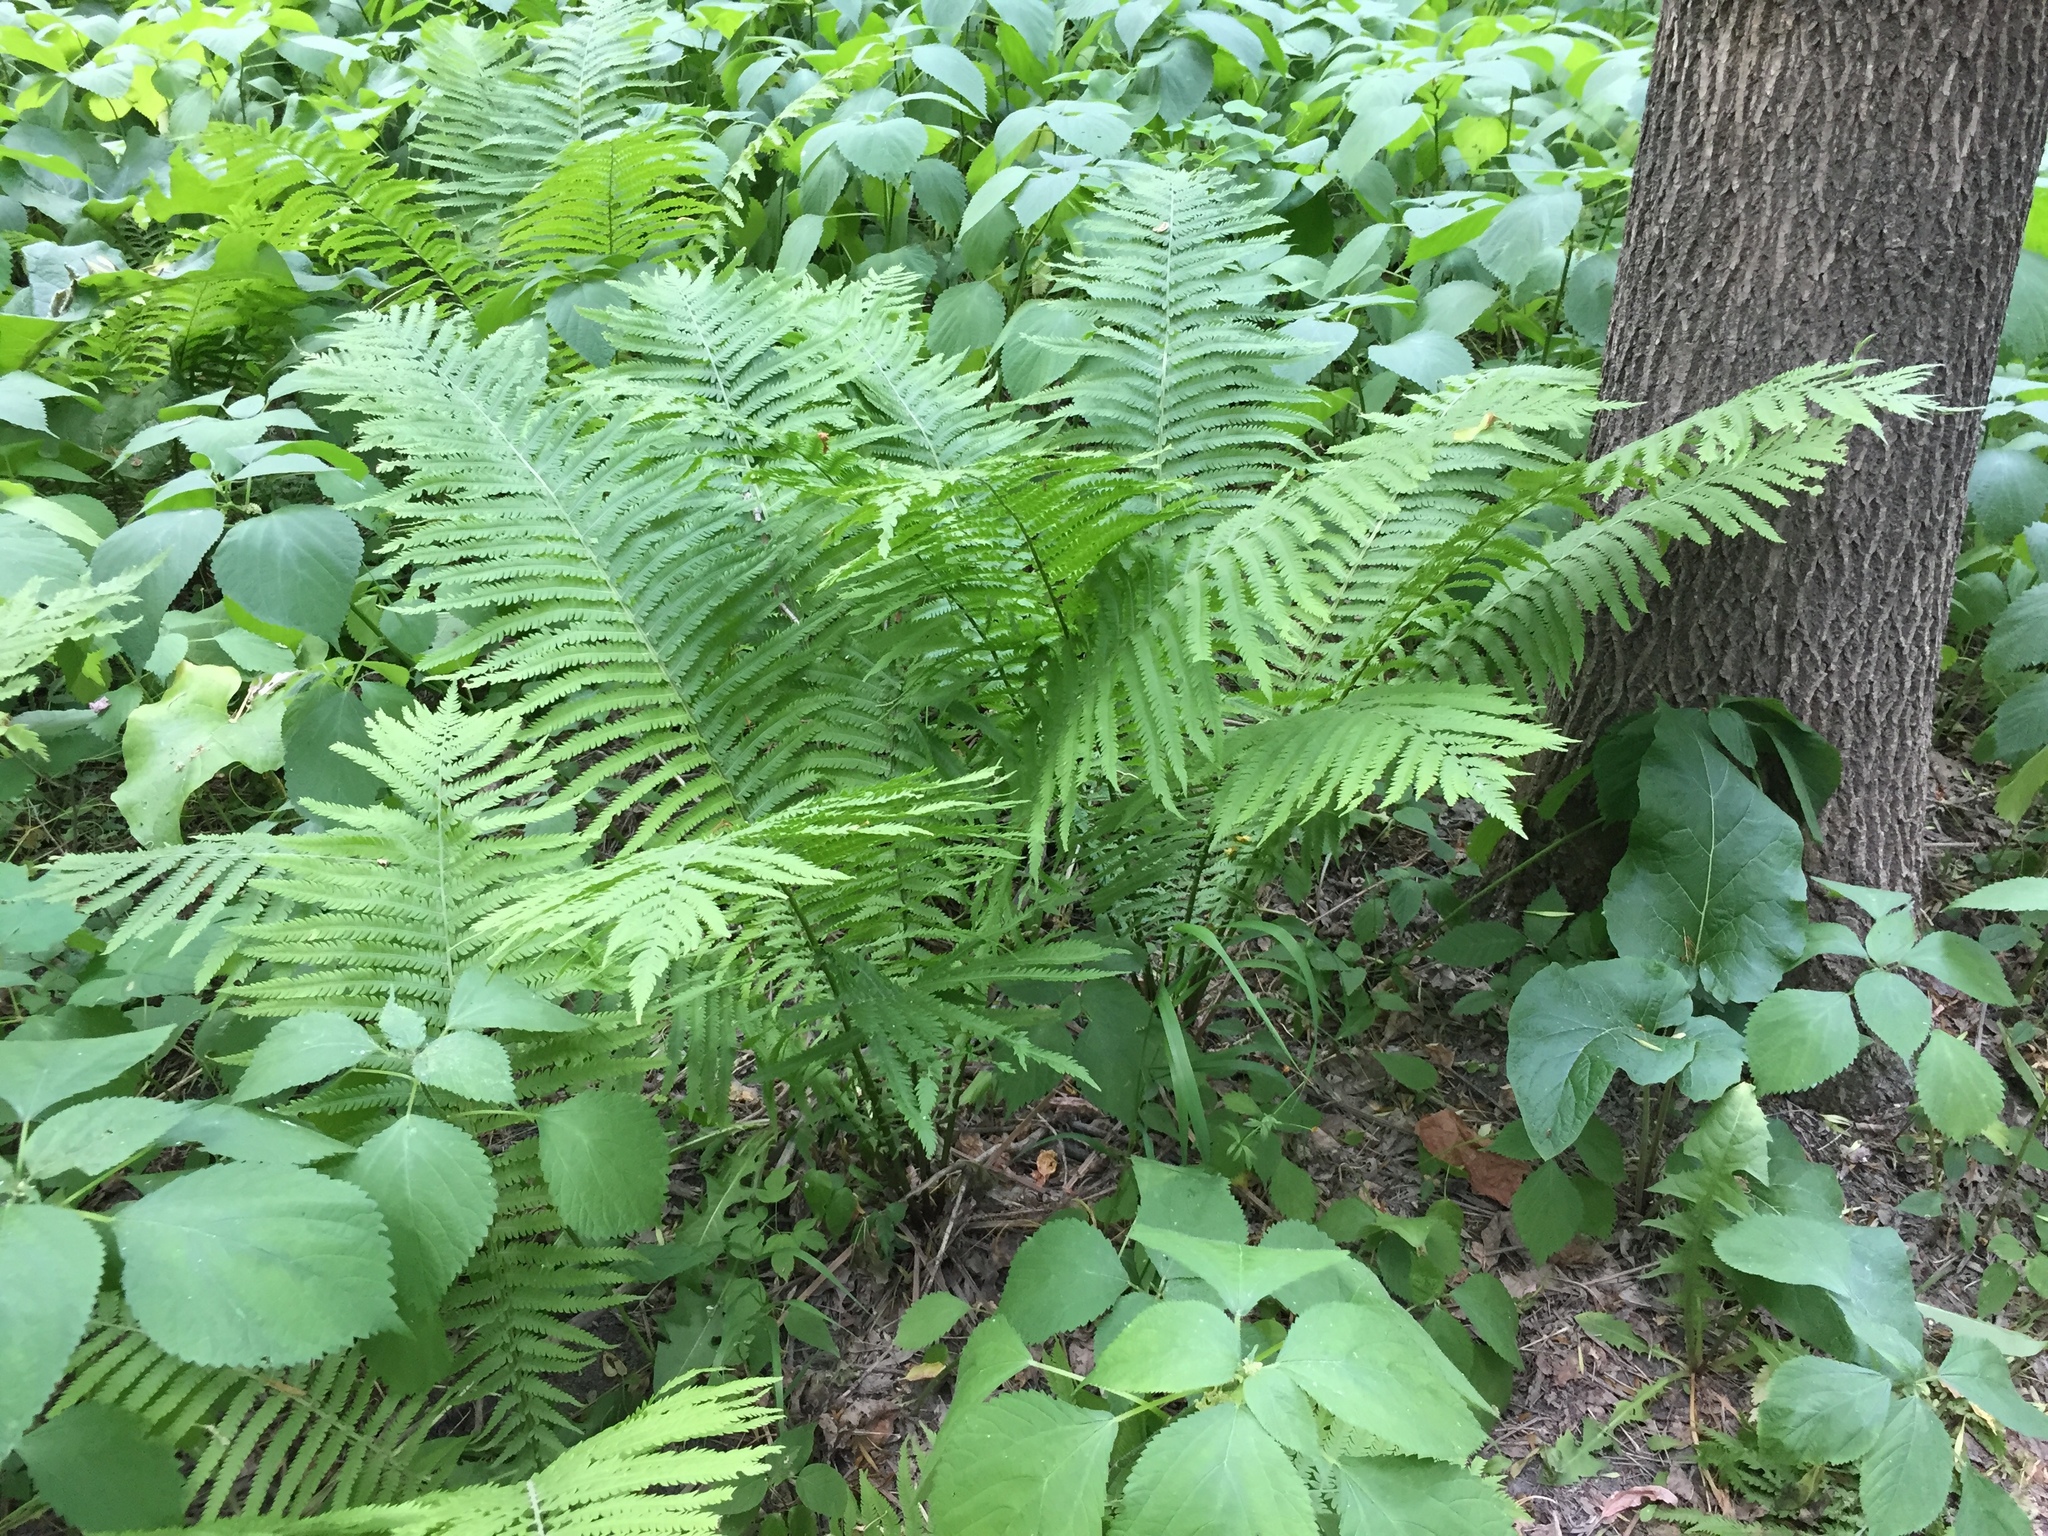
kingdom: Plantae
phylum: Tracheophyta
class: Polypodiopsida
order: Polypodiales
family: Onocleaceae
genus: Matteuccia
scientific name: Matteuccia struthiopteris
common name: Ostrich fern
